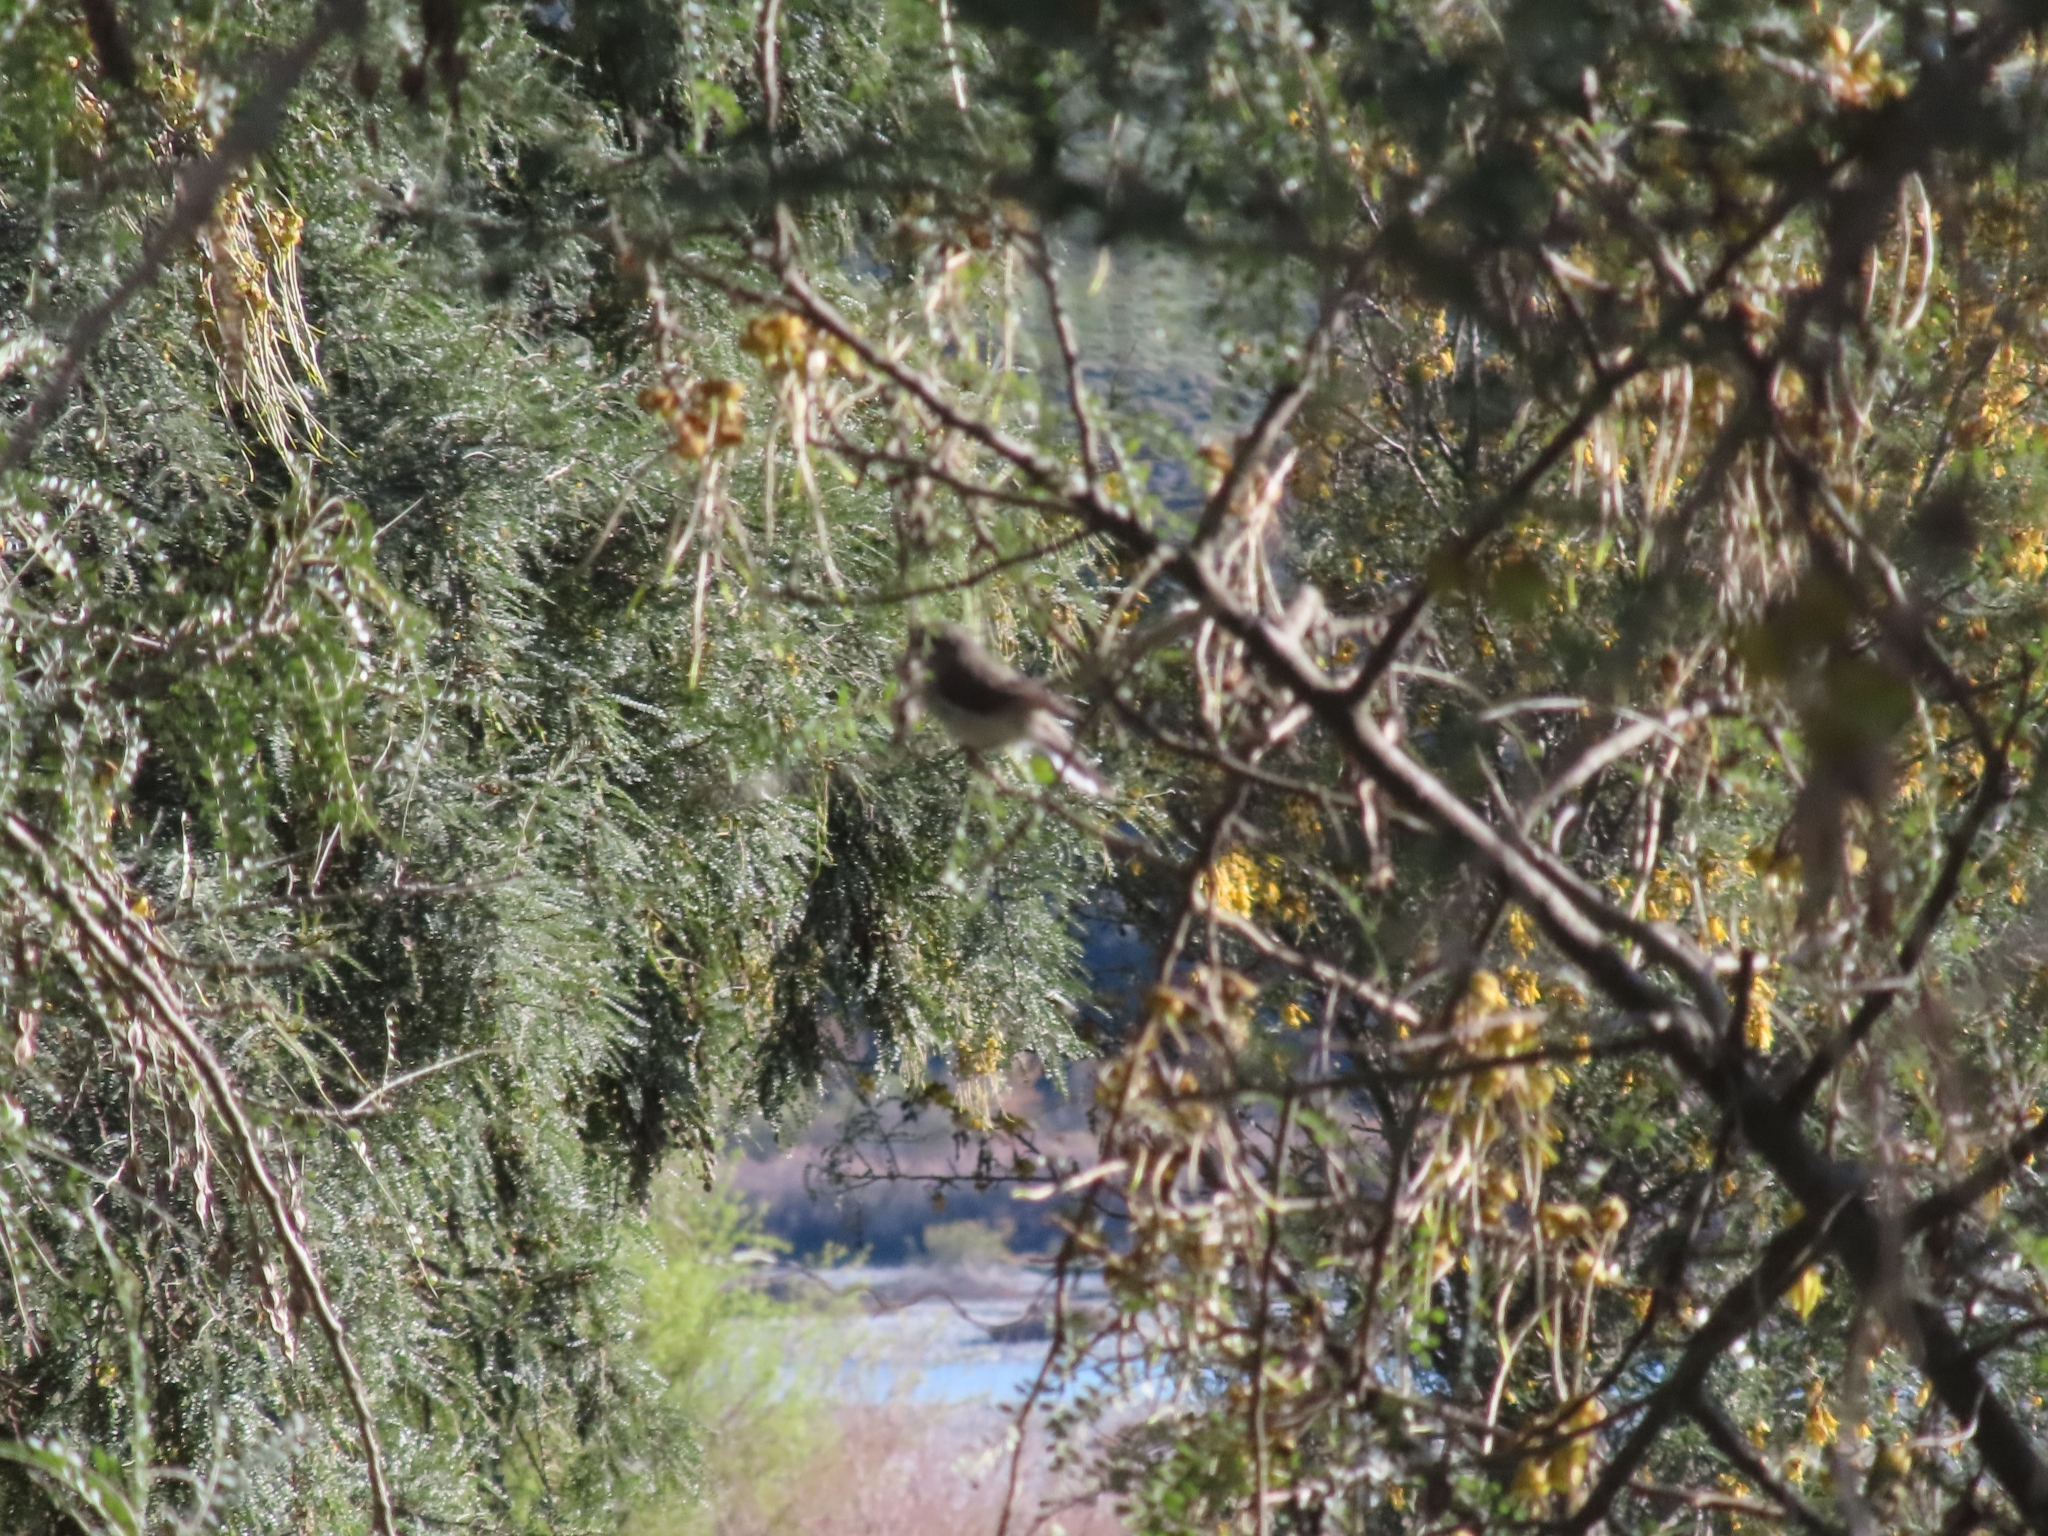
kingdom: Animalia
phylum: Chordata
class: Aves
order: Passeriformes
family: Acanthizidae
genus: Gerygone
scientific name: Gerygone igata
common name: Grey gerygone
